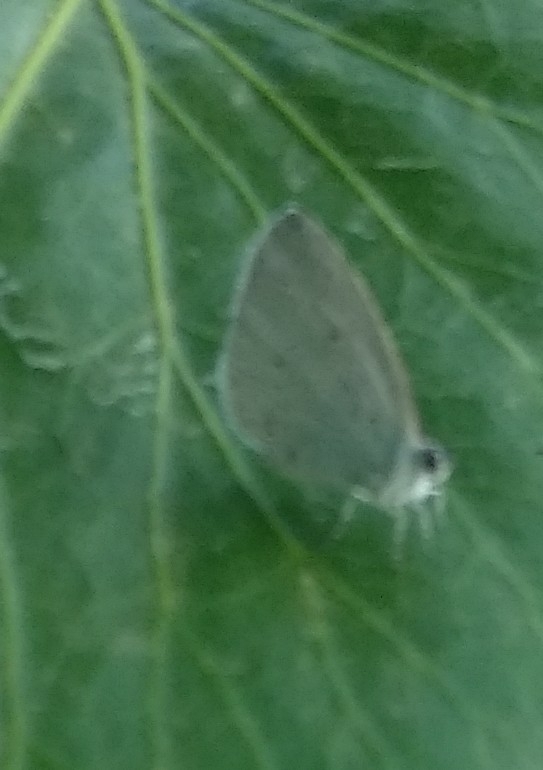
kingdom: Animalia
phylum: Arthropoda
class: Insecta
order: Lepidoptera
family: Lycaenidae
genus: Celastrina
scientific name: Celastrina argiolus
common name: Holly blue
